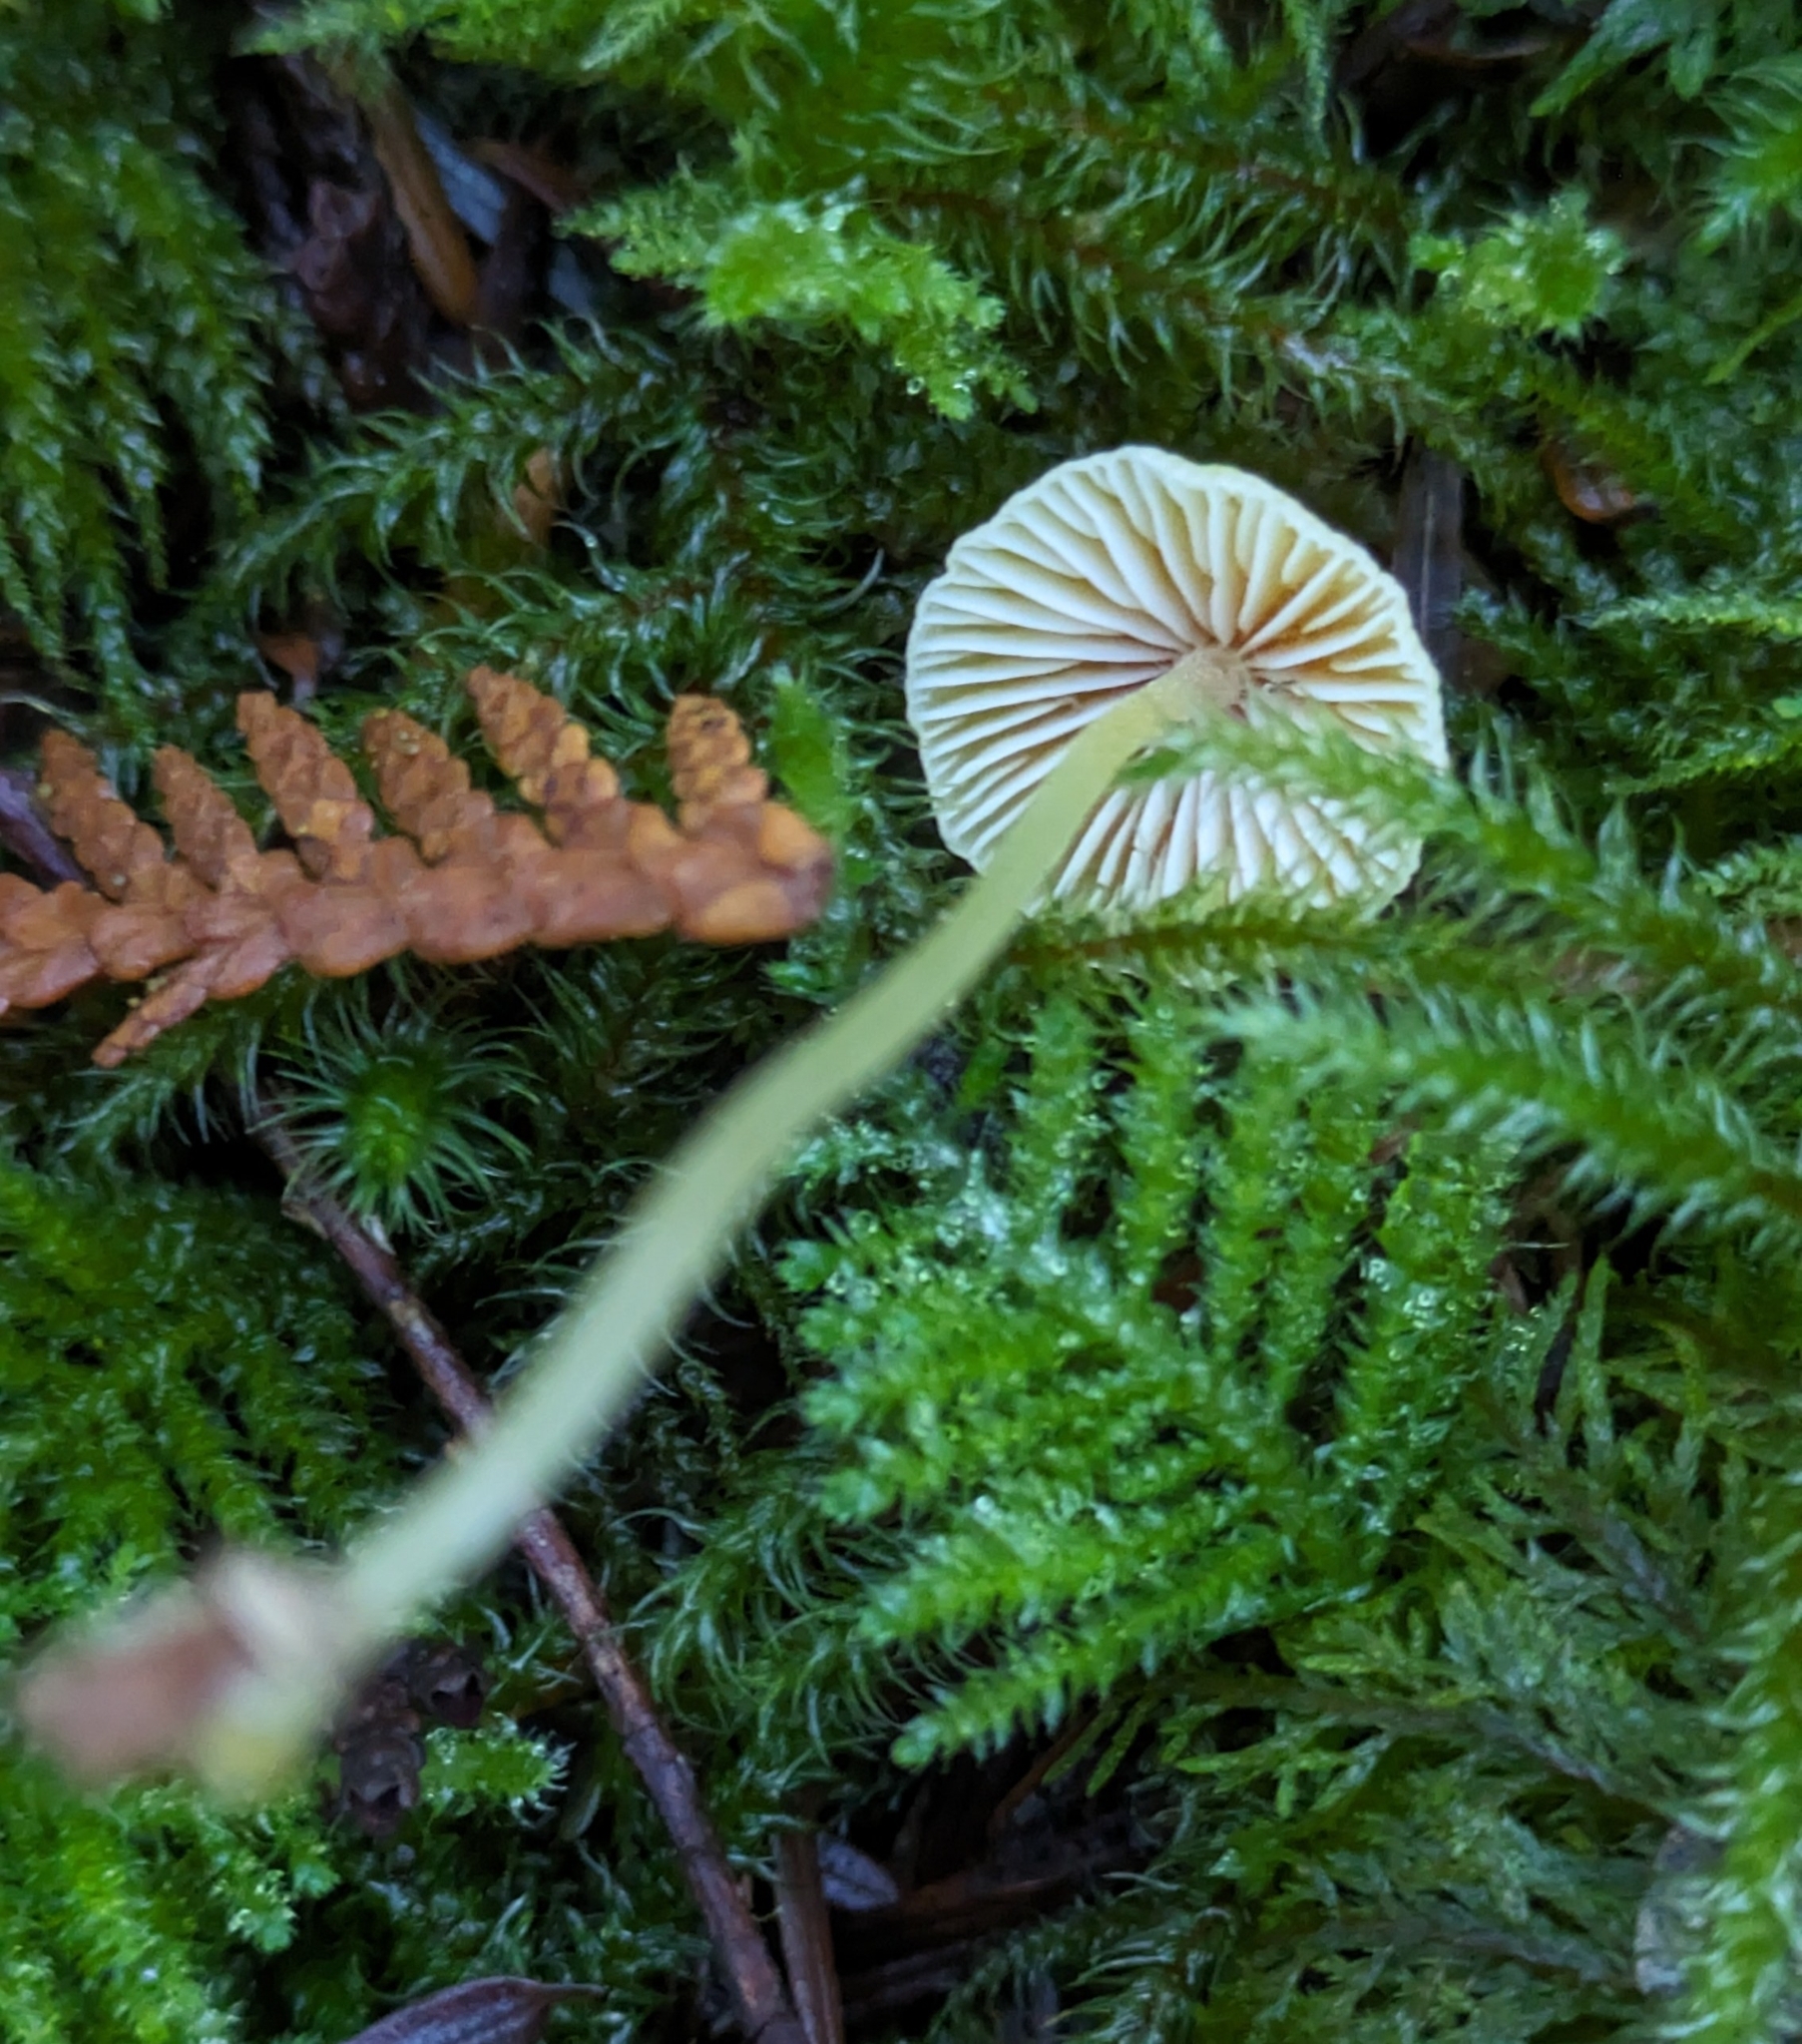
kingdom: Fungi
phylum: Basidiomycota
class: Agaricomycetes
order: Agaricales
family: Mycenaceae
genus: Atheniella
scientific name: Atheniella aurantiidisca
